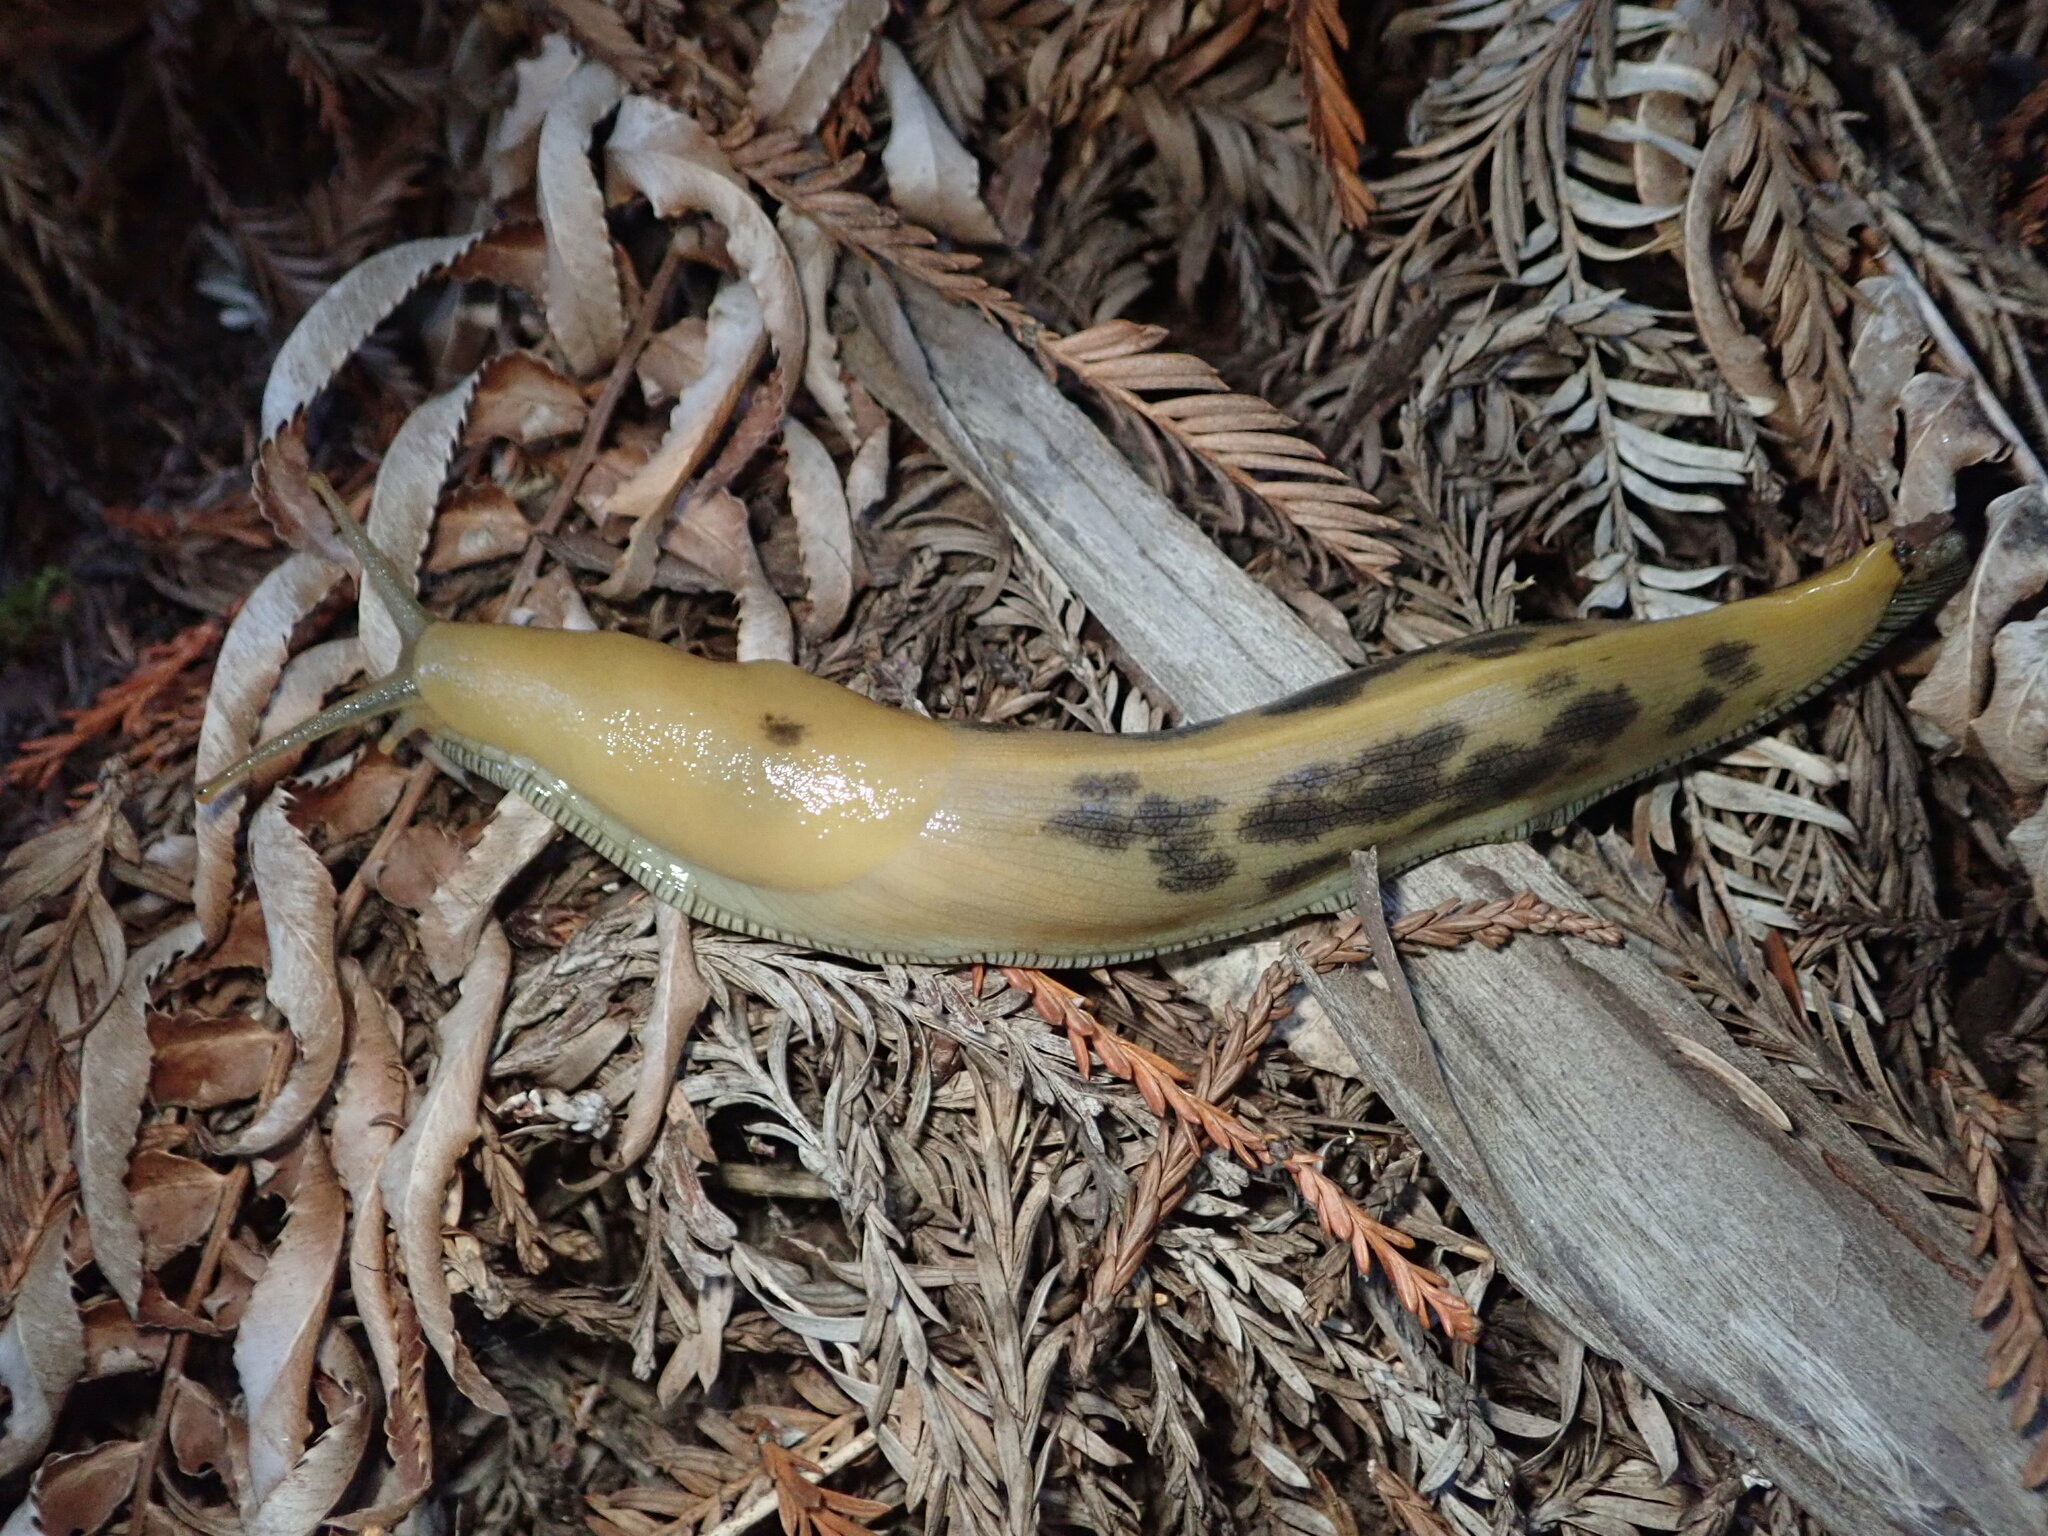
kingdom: Animalia
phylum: Mollusca
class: Gastropoda
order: Stylommatophora
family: Ariolimacidae
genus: Ariolimax
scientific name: Ariolimax buttoni
